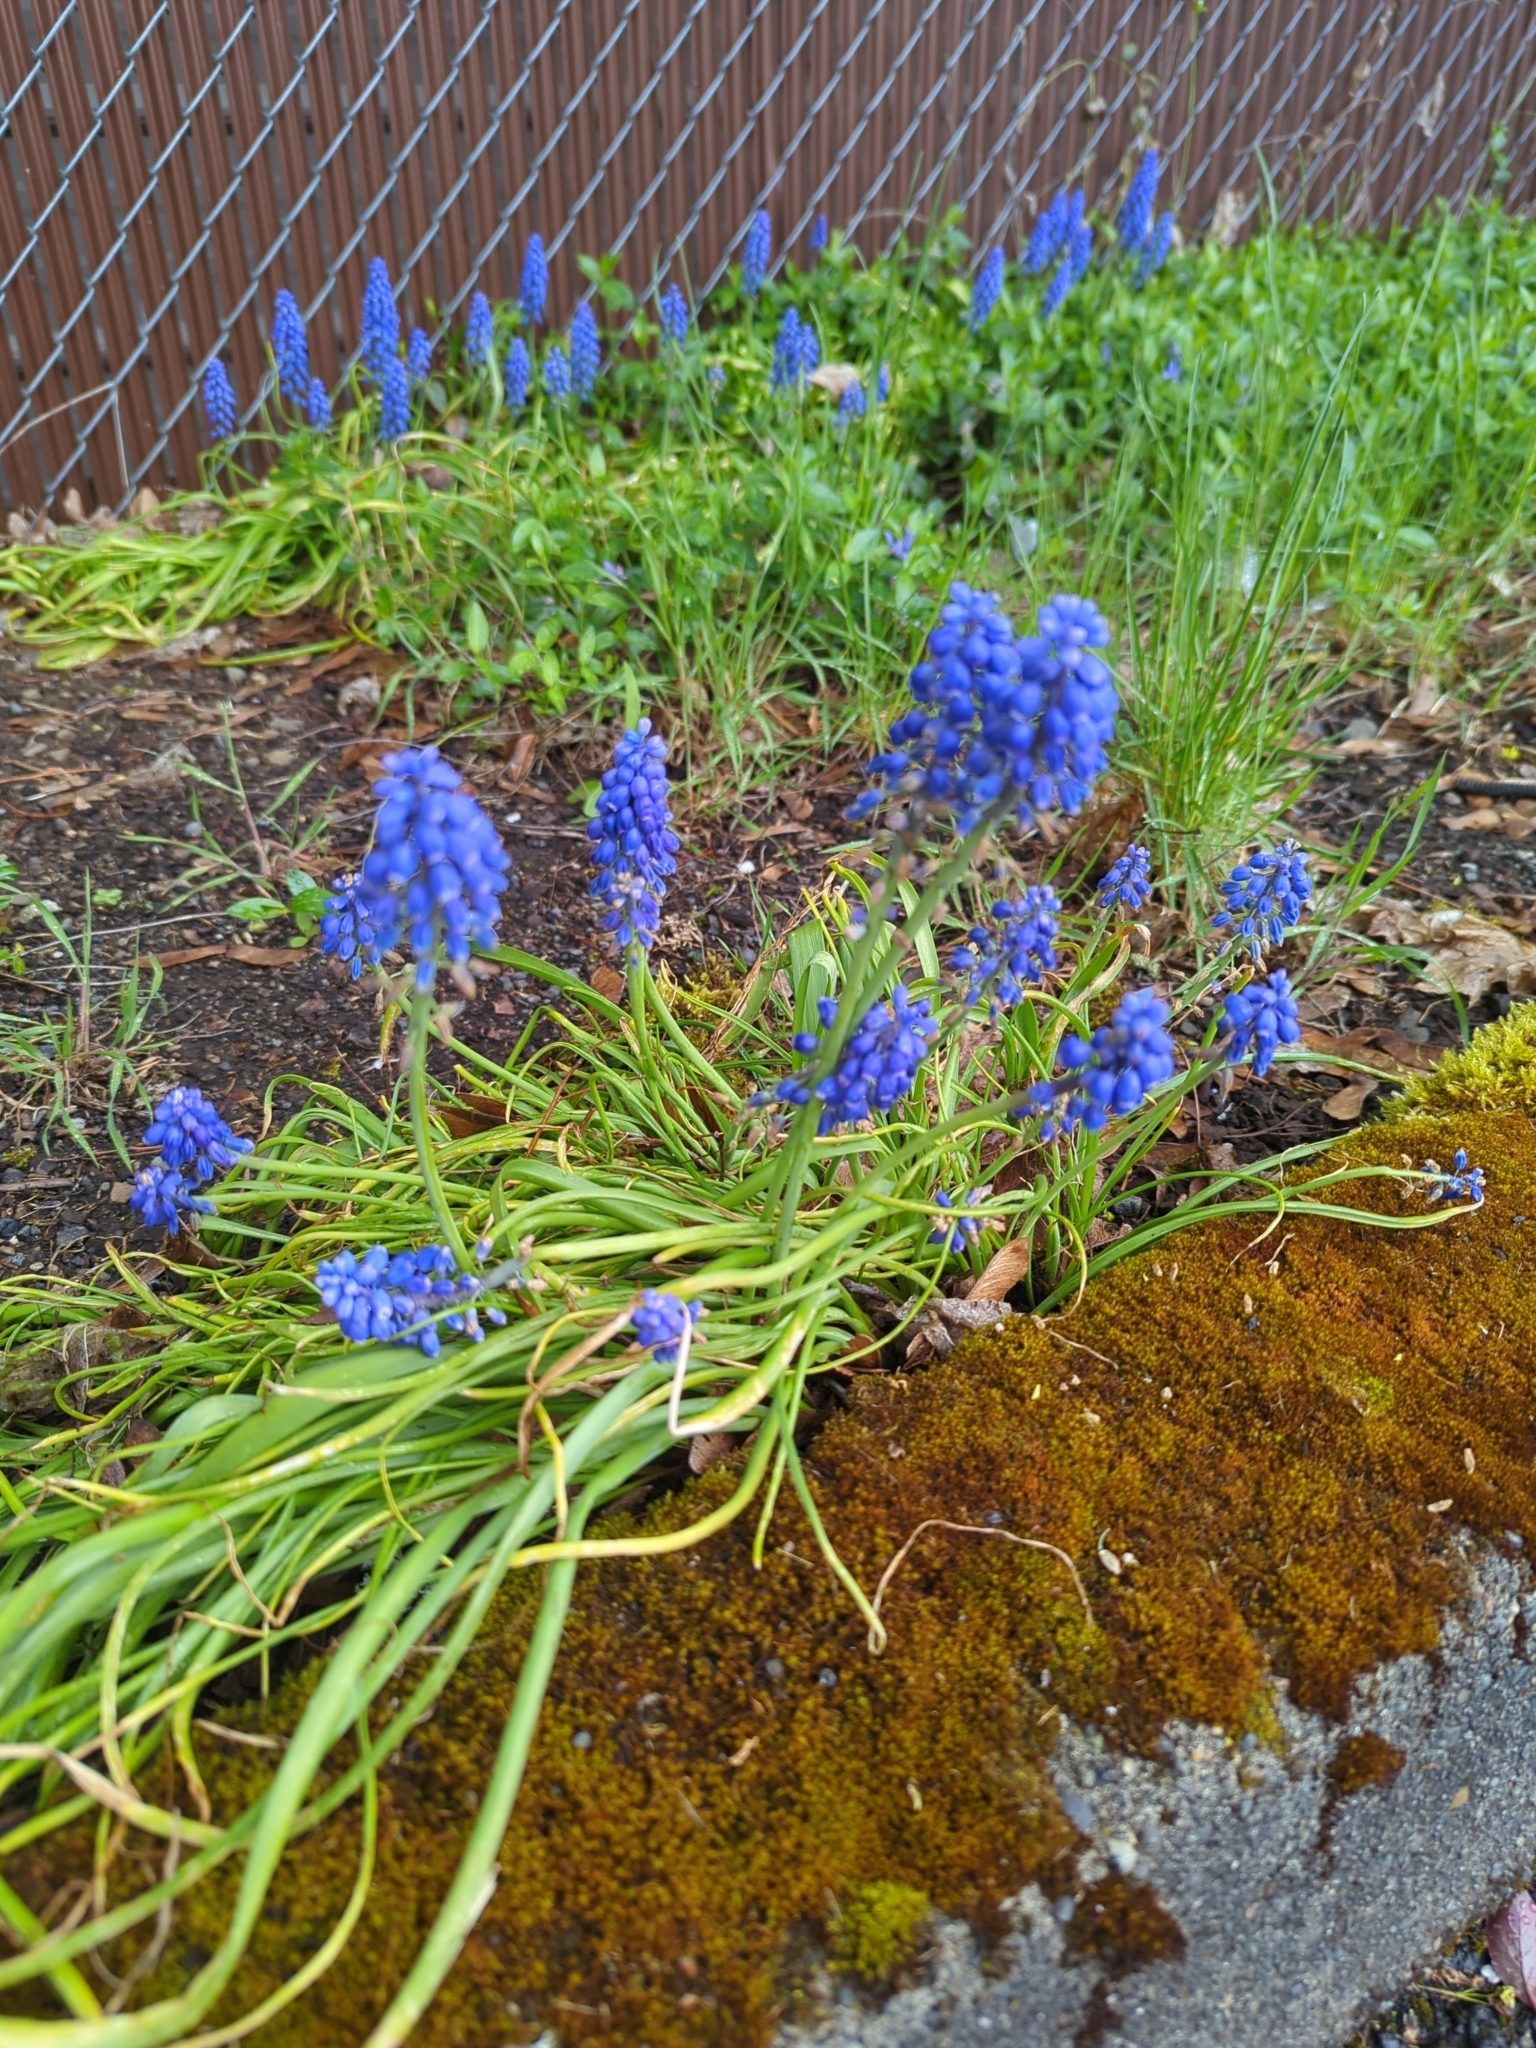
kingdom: Plantae
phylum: Tracheophyta
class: Liliopsida
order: Asparagales
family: Asparagaceae
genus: Muscari
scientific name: Muscari neglectum
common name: Grape-hyacinth
